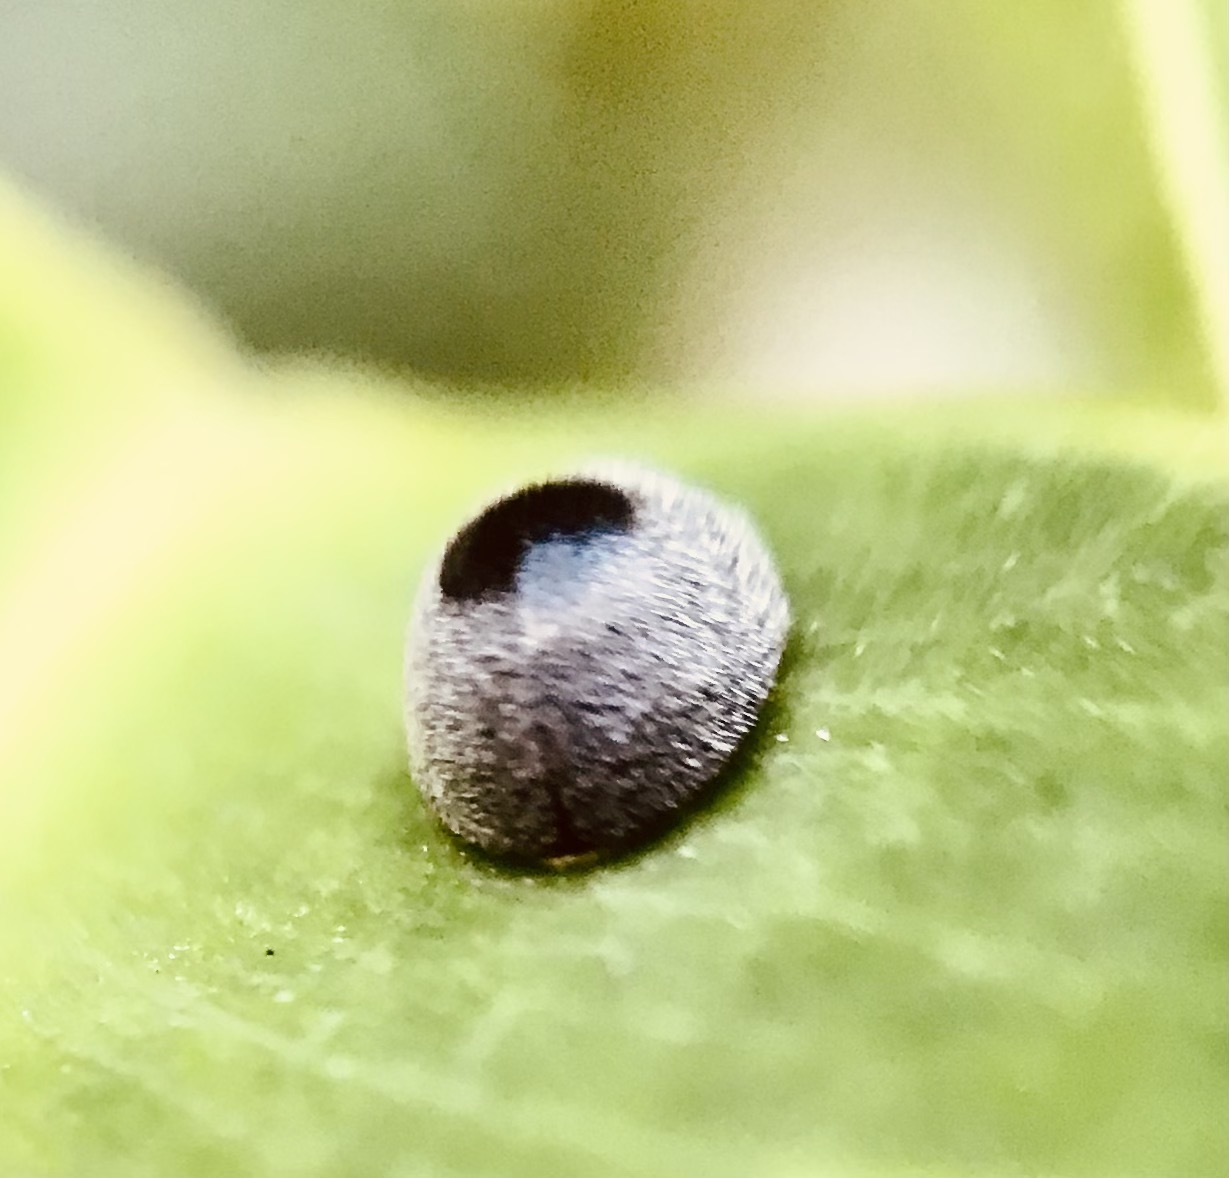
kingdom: Animalia
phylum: Arthropoda
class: Insecta
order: Coleoptera
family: Coccinellidae
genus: Azya
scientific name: Azya
